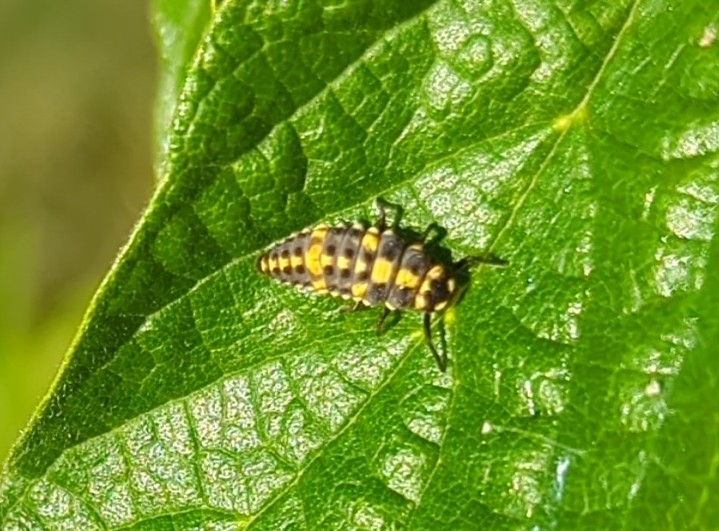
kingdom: Animalia
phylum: Arthropoda
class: Insecta
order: Coleoptera
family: Coccinellidae
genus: Olla
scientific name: Olla v-nigrum
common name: Ashy gray lady beetle
